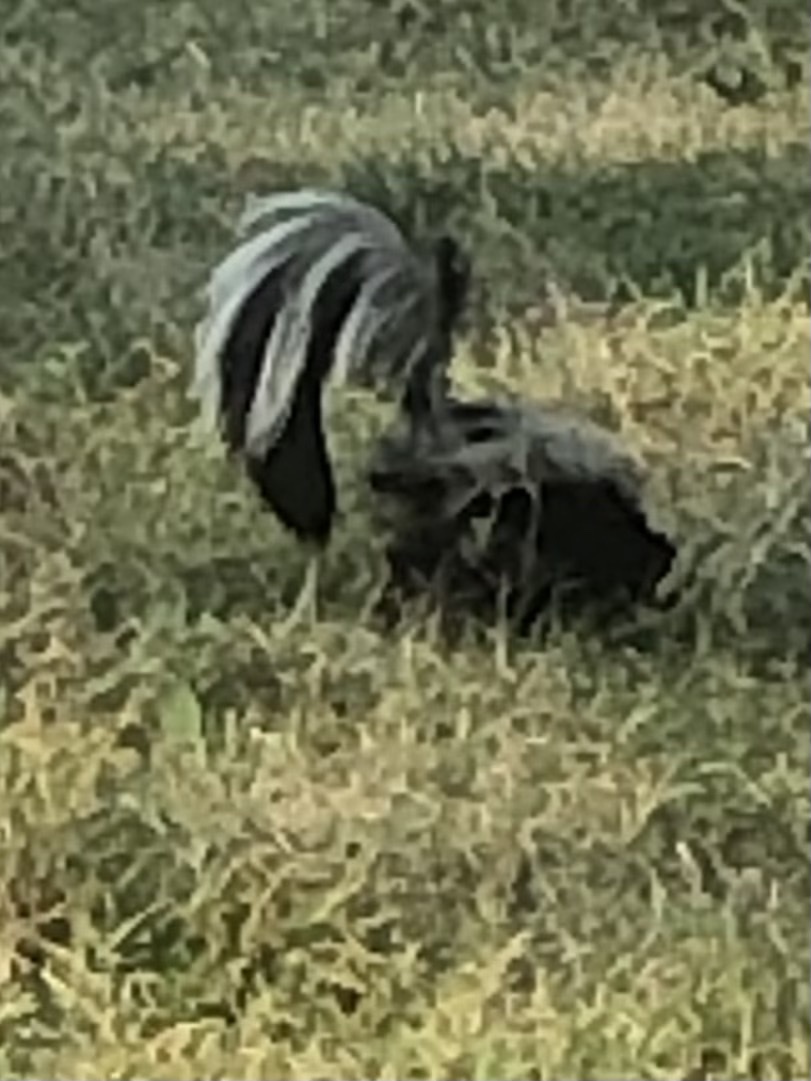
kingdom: Animalia
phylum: Chordata
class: Mammalia
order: Carnivora
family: Mephitidae
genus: Mephitis
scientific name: Mephitis mephitis
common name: Striped skunk
